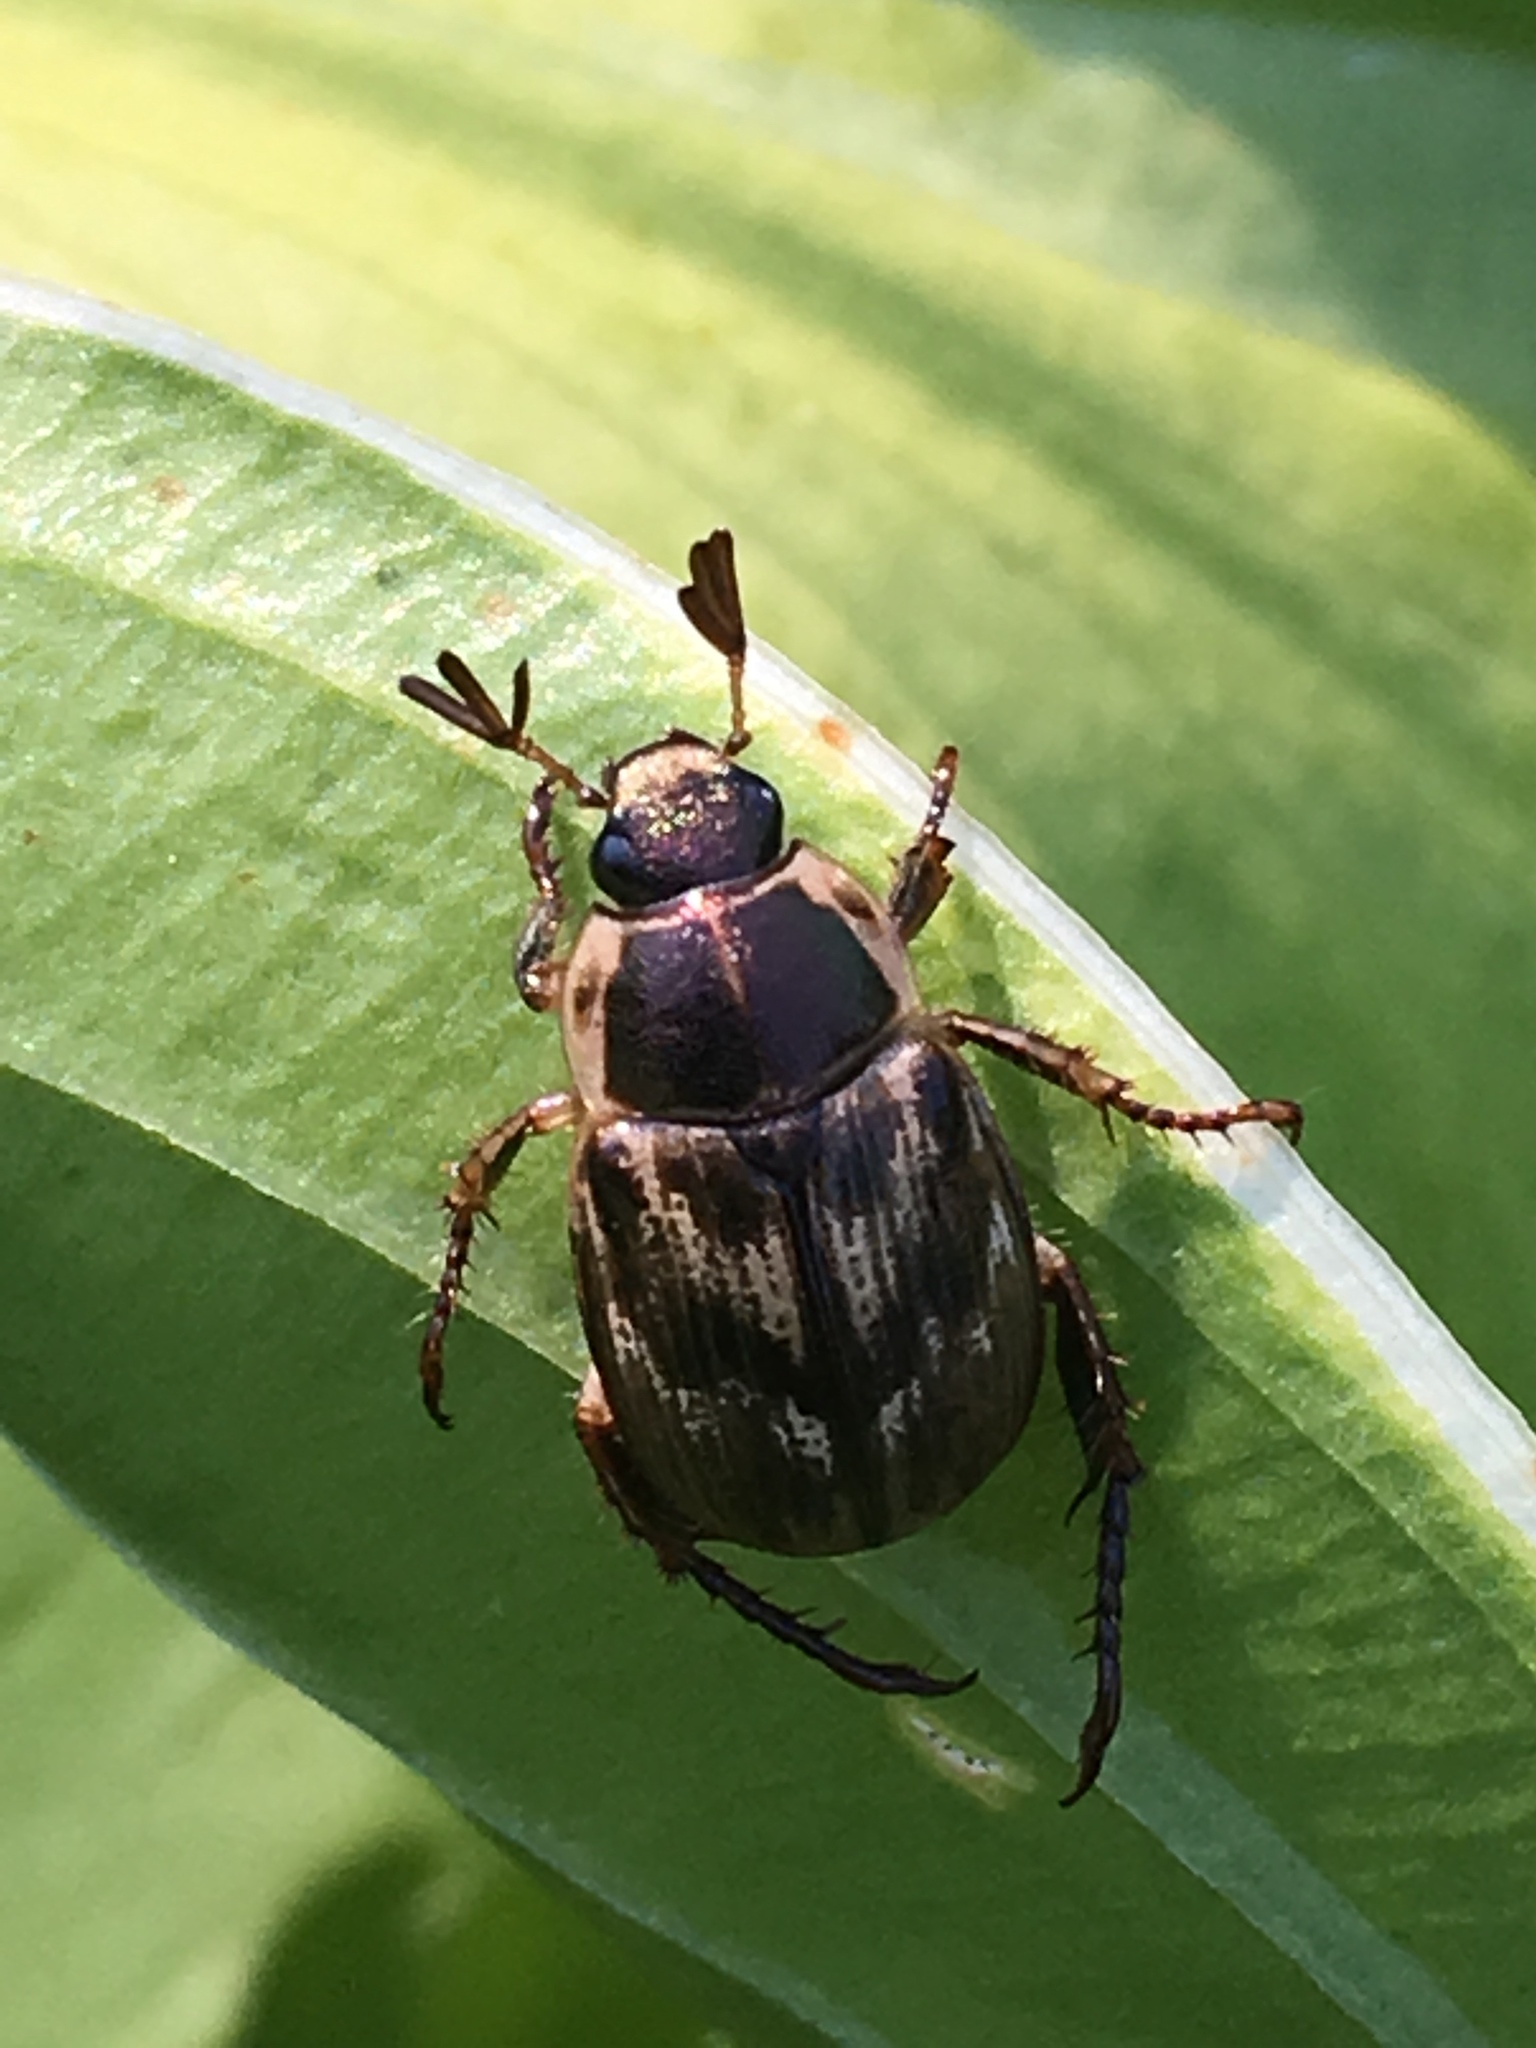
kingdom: Animalia
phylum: Arthropoda
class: Insecta
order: Coleoptera
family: Scarabaeidae
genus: Exomala
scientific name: Exomala orientalis
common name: Oriental beetle
